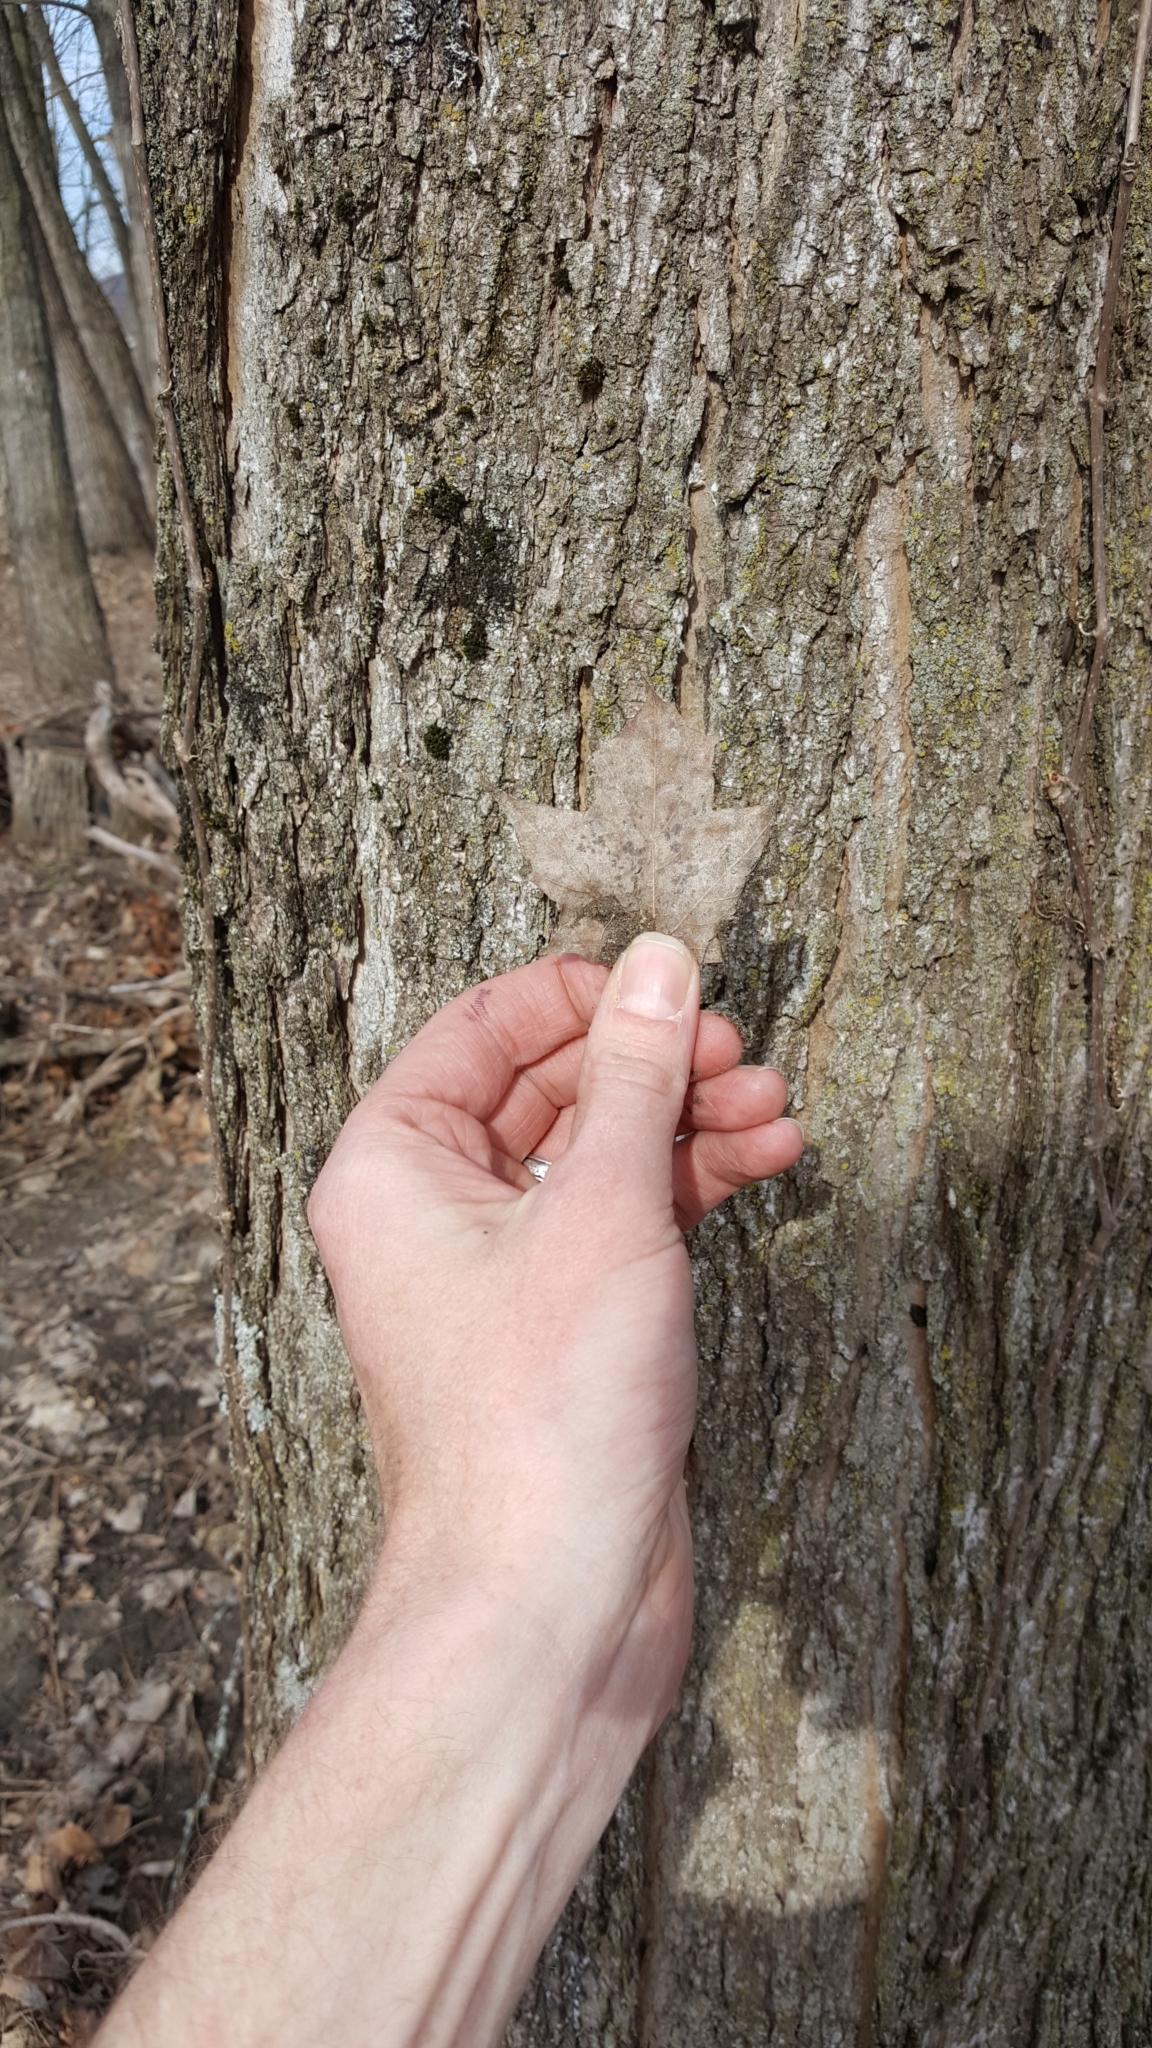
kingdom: Plantae
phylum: Tracheophyta
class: Magnoliopsida
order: Sapindales
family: Sapindaceae
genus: Acer
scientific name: Acer saccharum
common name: Sugar maple
